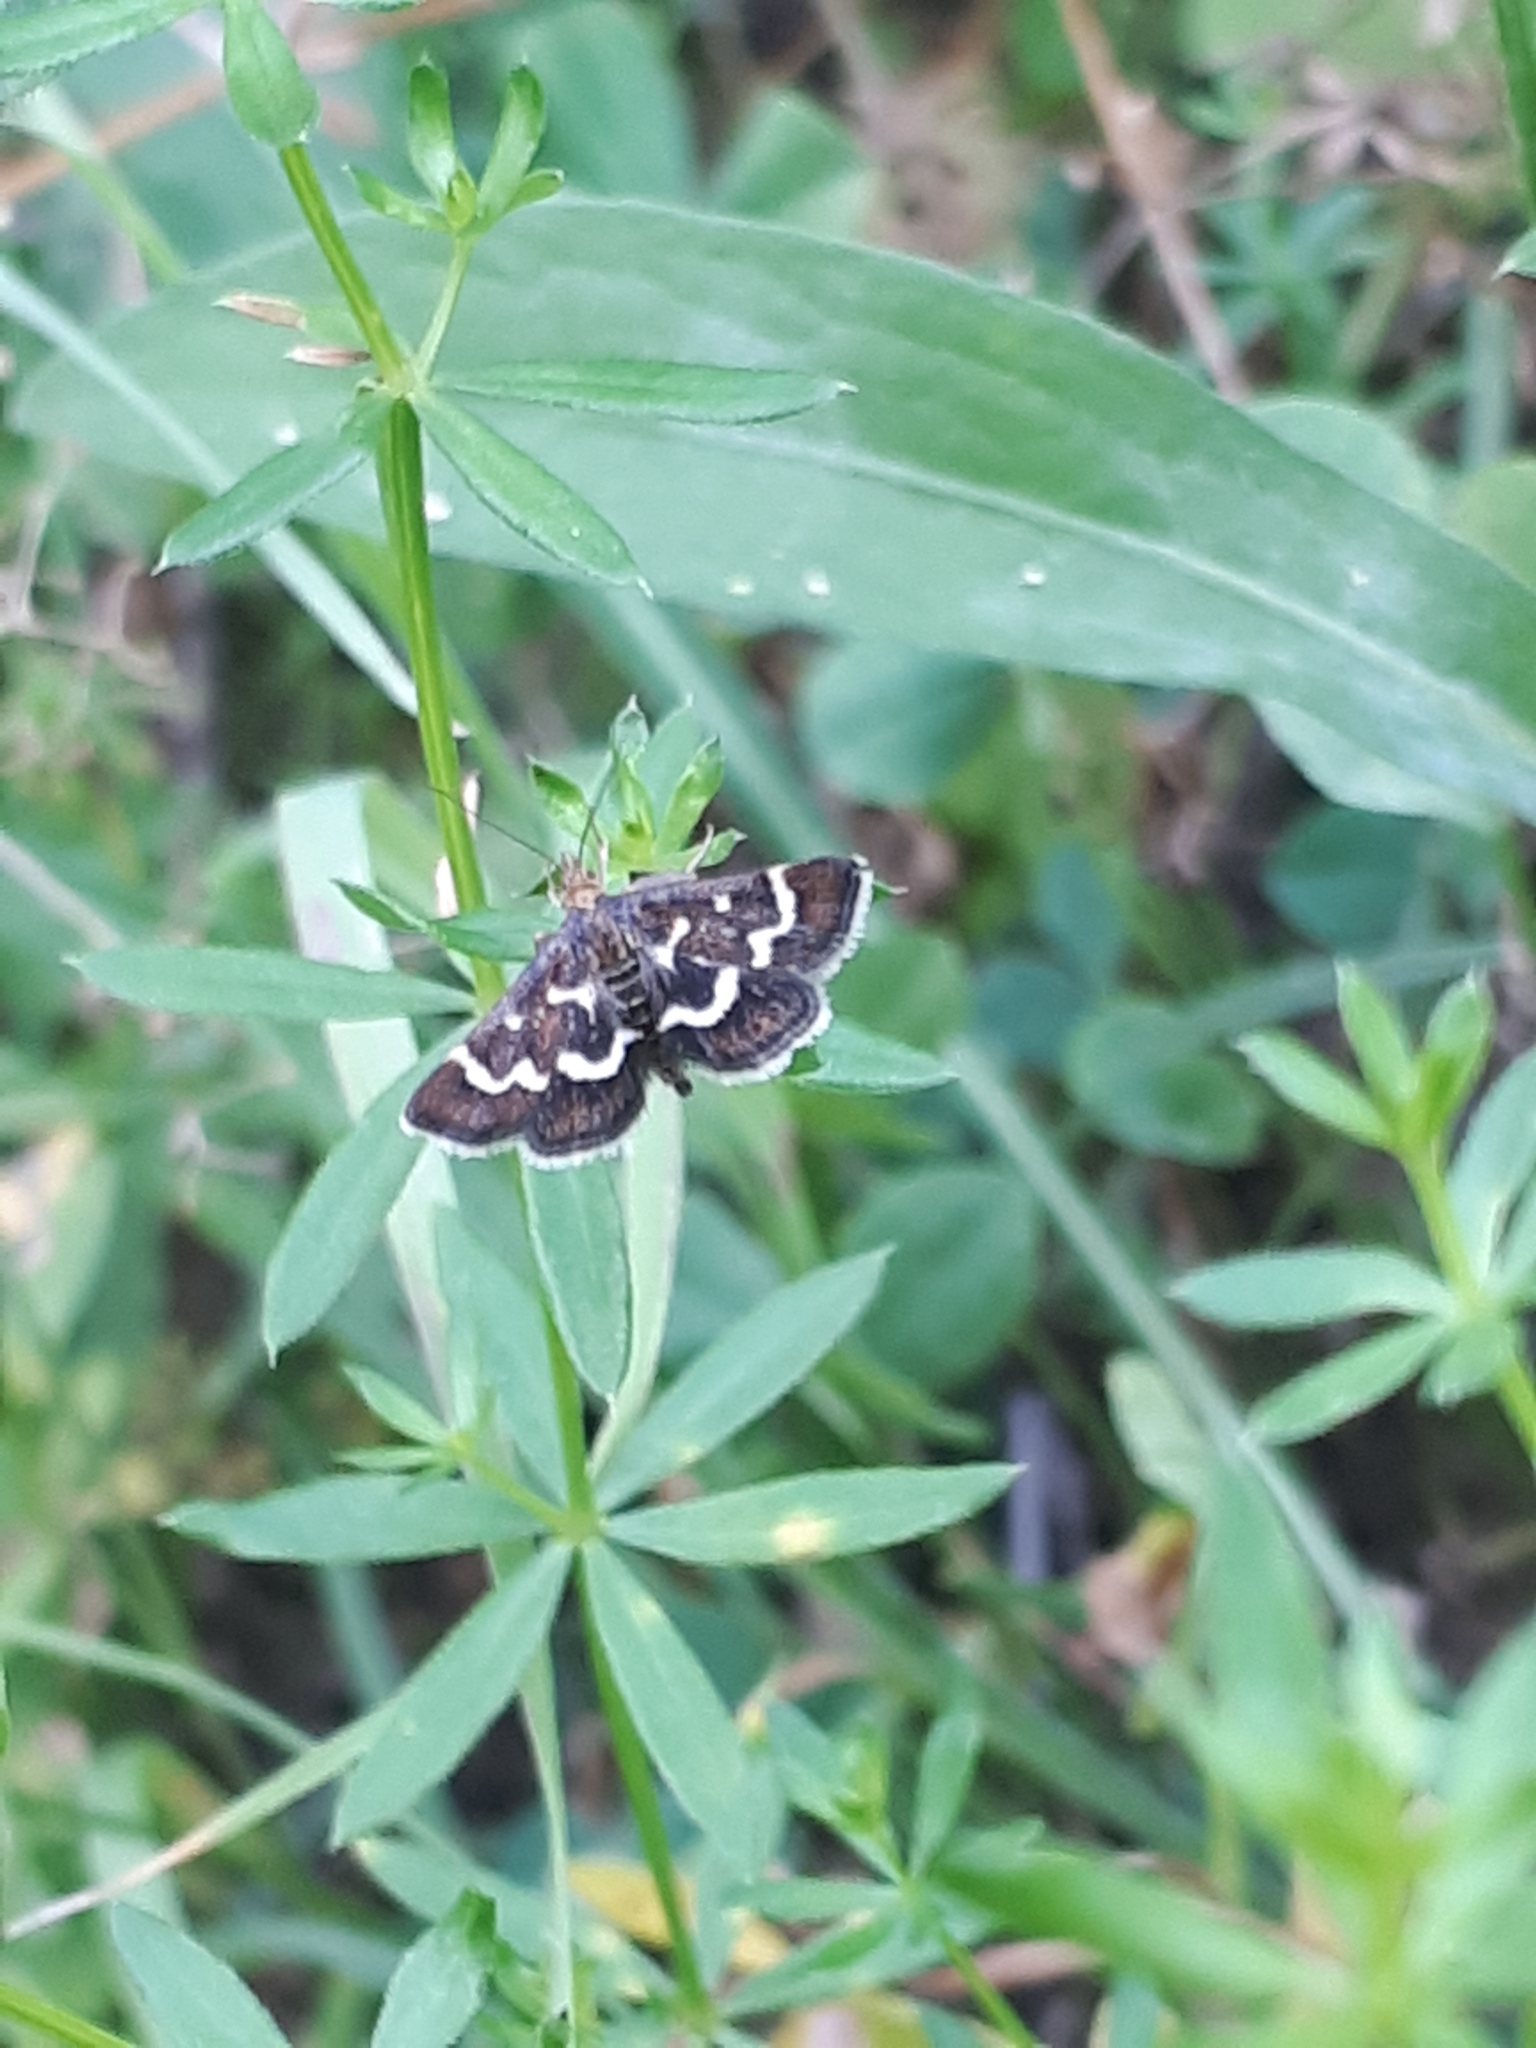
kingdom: Animalia
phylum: Arthropoda
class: Insecta
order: Lepidoptera
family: Crambidae
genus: Pyrausta
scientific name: Pyrausta nigrata
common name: Wavy-barred sable
